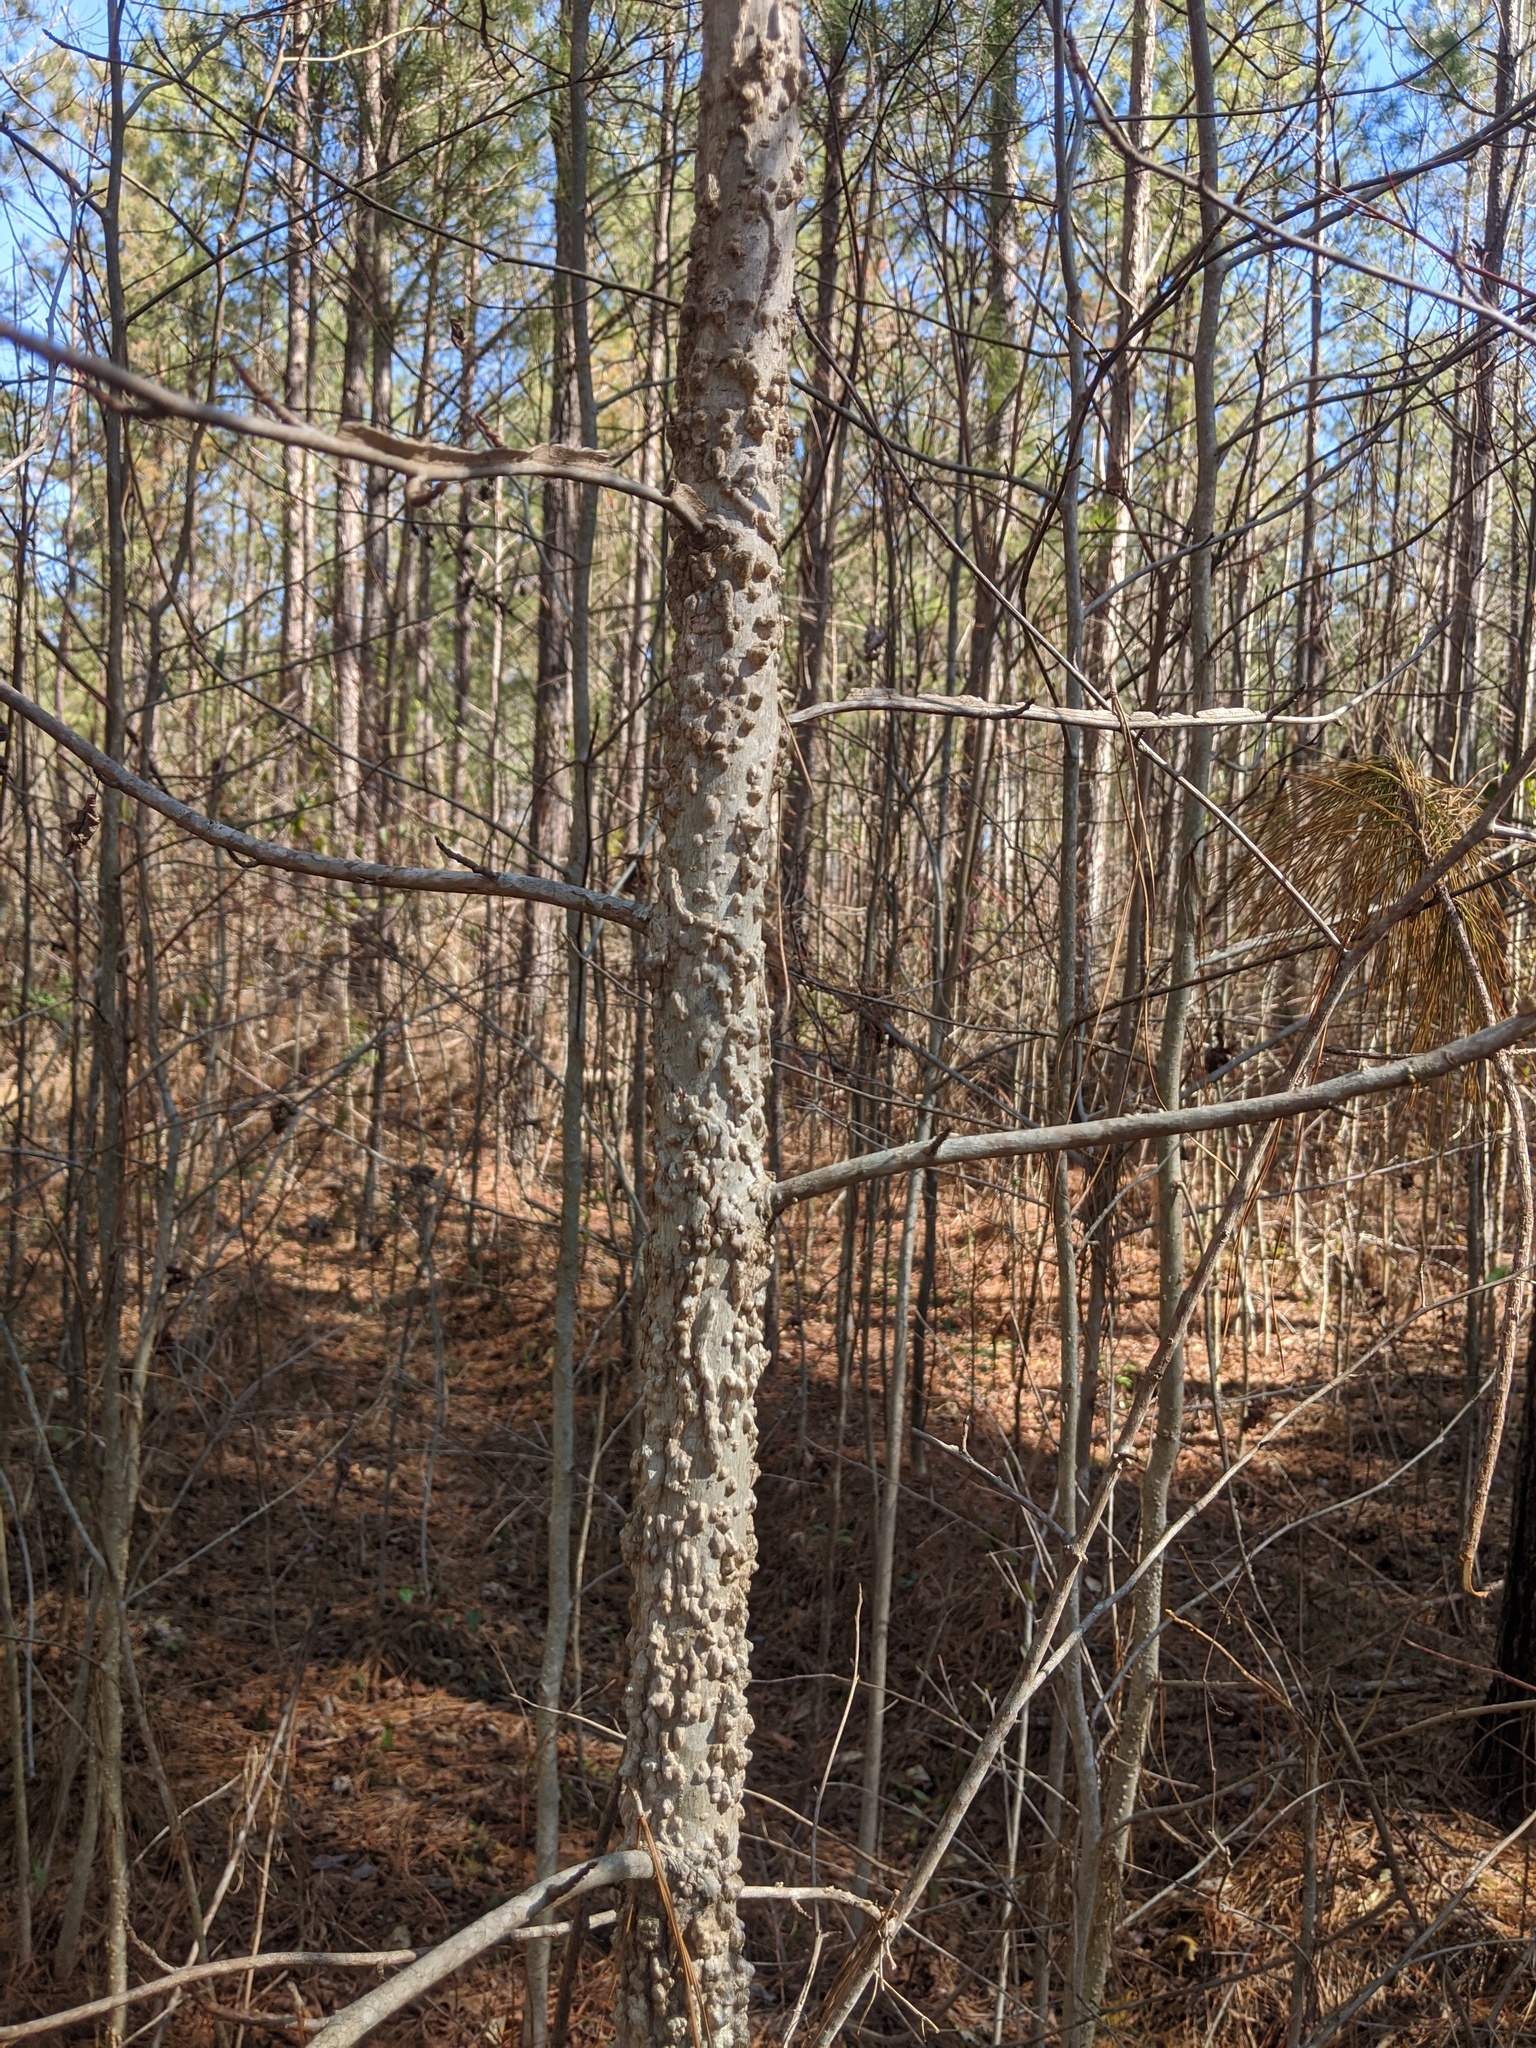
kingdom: Plantae
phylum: Tracheophyta
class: Magnoliopsida
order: Saxifragales
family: Altingiaceae
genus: Liquidambar
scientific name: Liquidambar styraciflua
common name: Sweet gum
